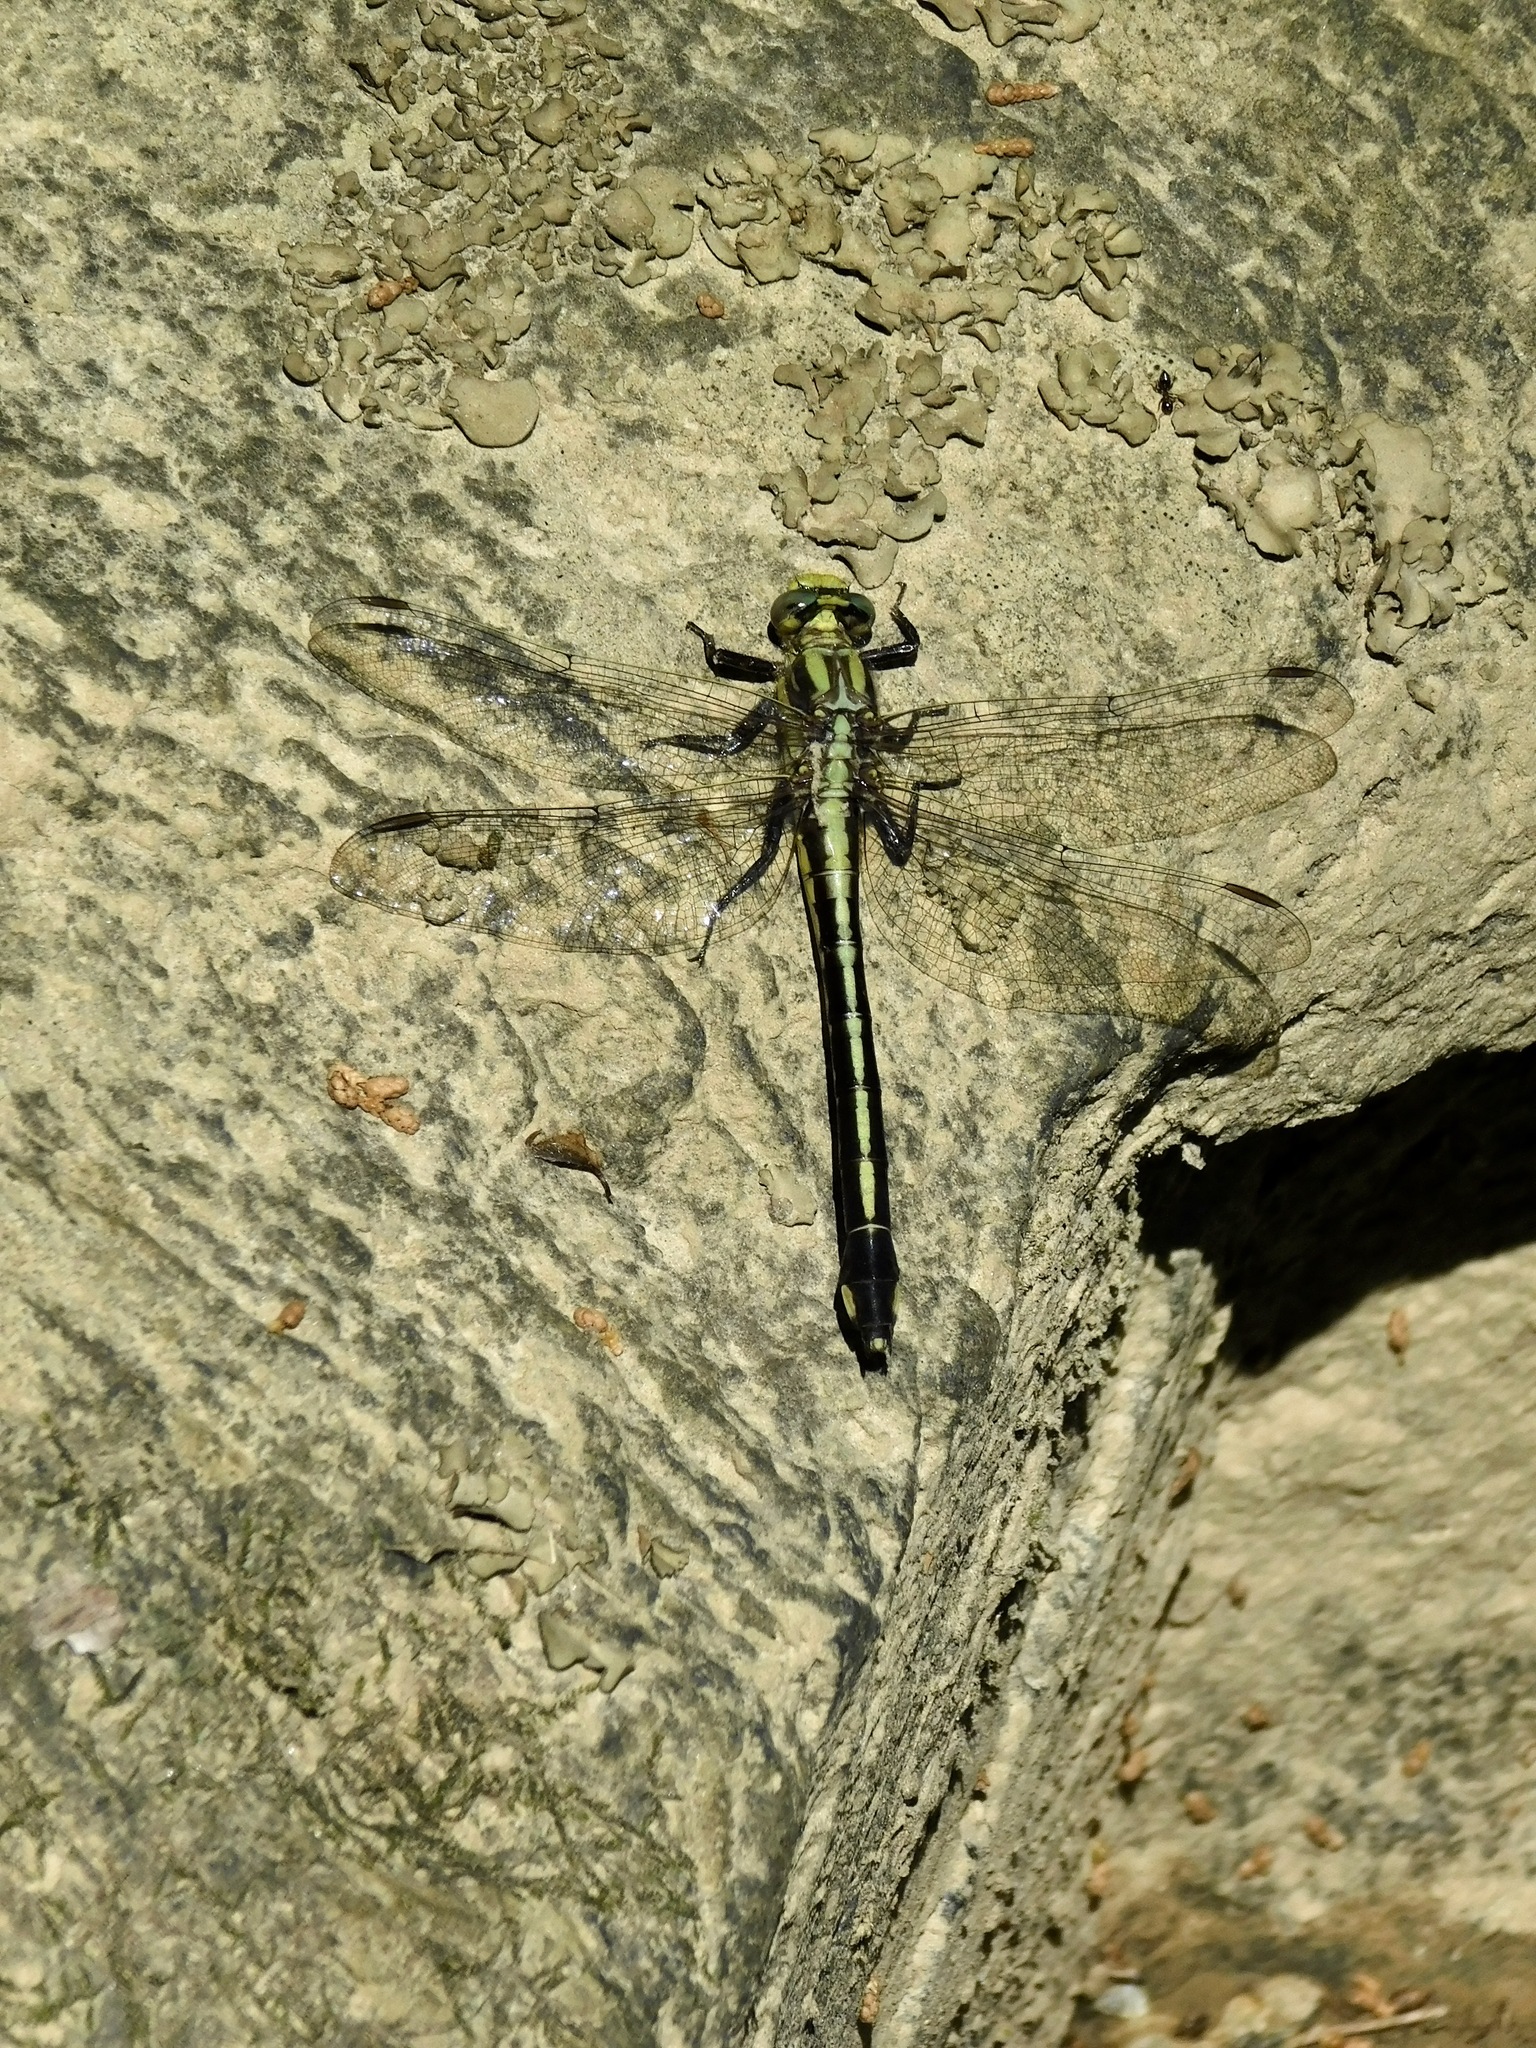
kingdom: Animalia
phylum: Arthropoda
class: Insecta
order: Odonata
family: Gomphidae
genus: Gomphurus
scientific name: Gomphurus septima
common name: Septima's clubtail
